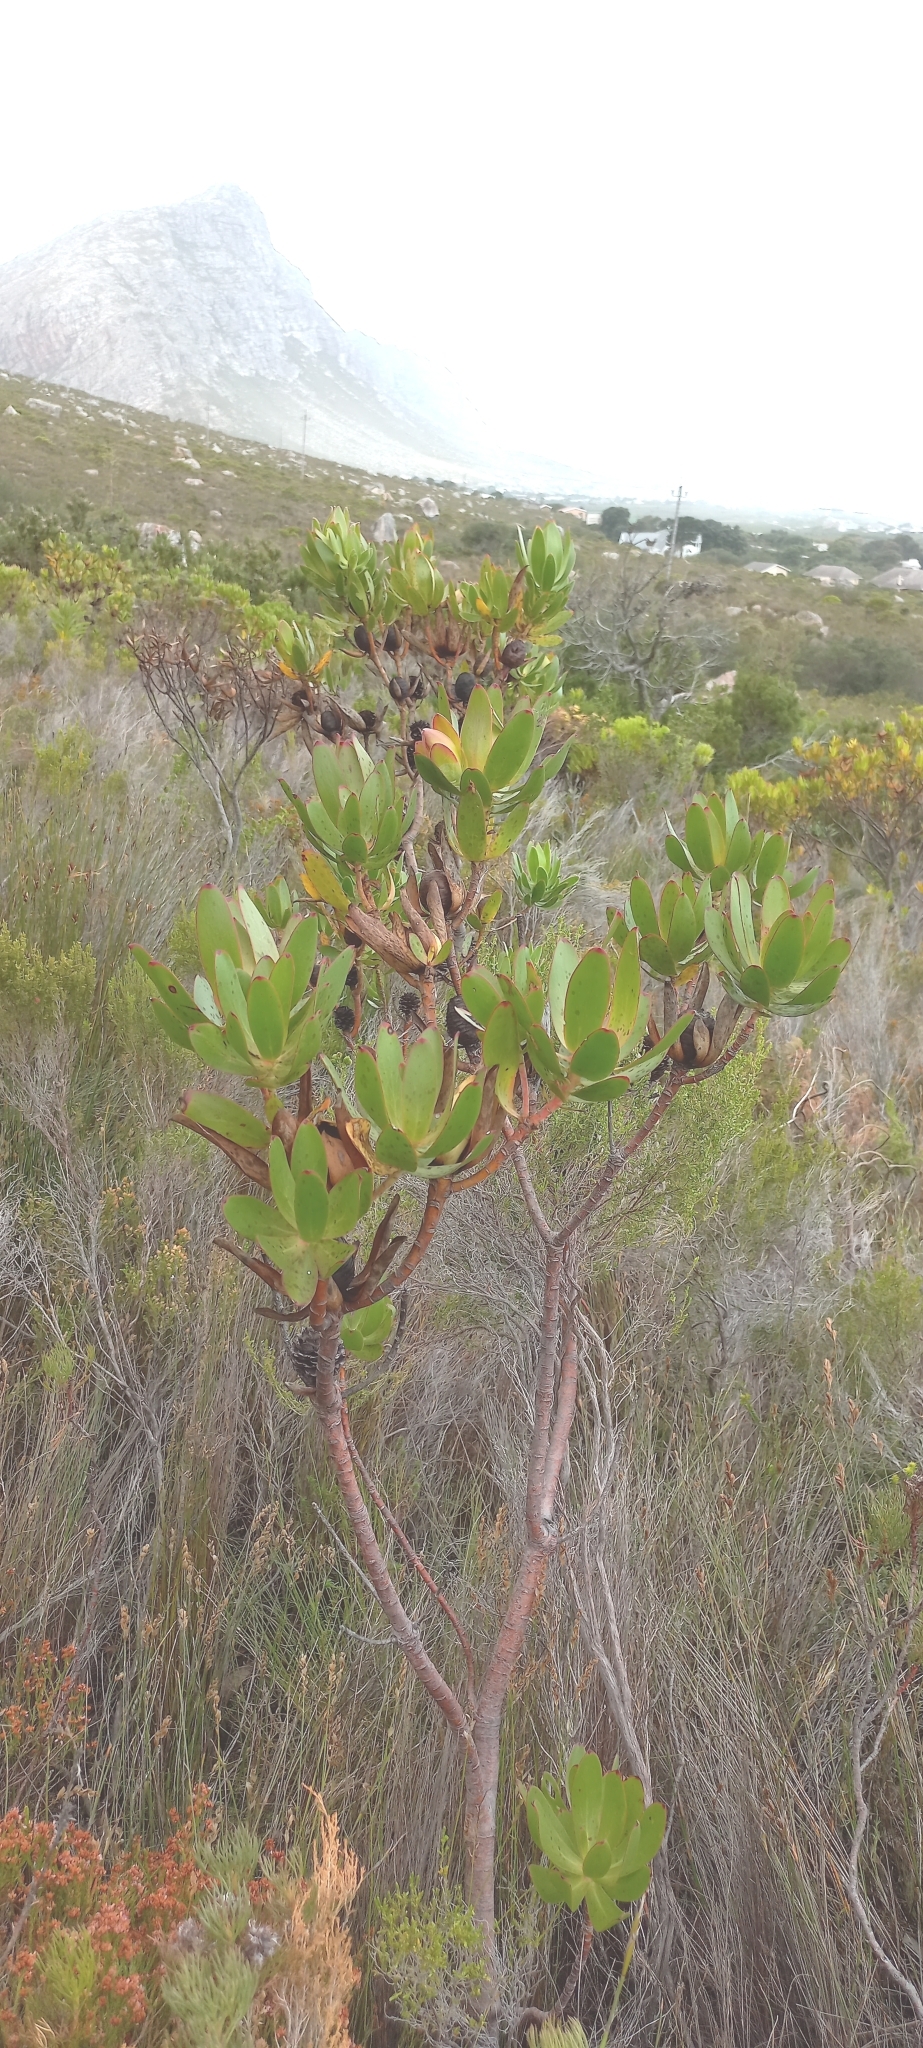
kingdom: Plantae
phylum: Tracheophyta
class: Magnoliopsida
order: Proteales
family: Proteaceae
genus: Leucadendron
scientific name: Leucadendron gandogeri
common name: Broad-leaf conebush
